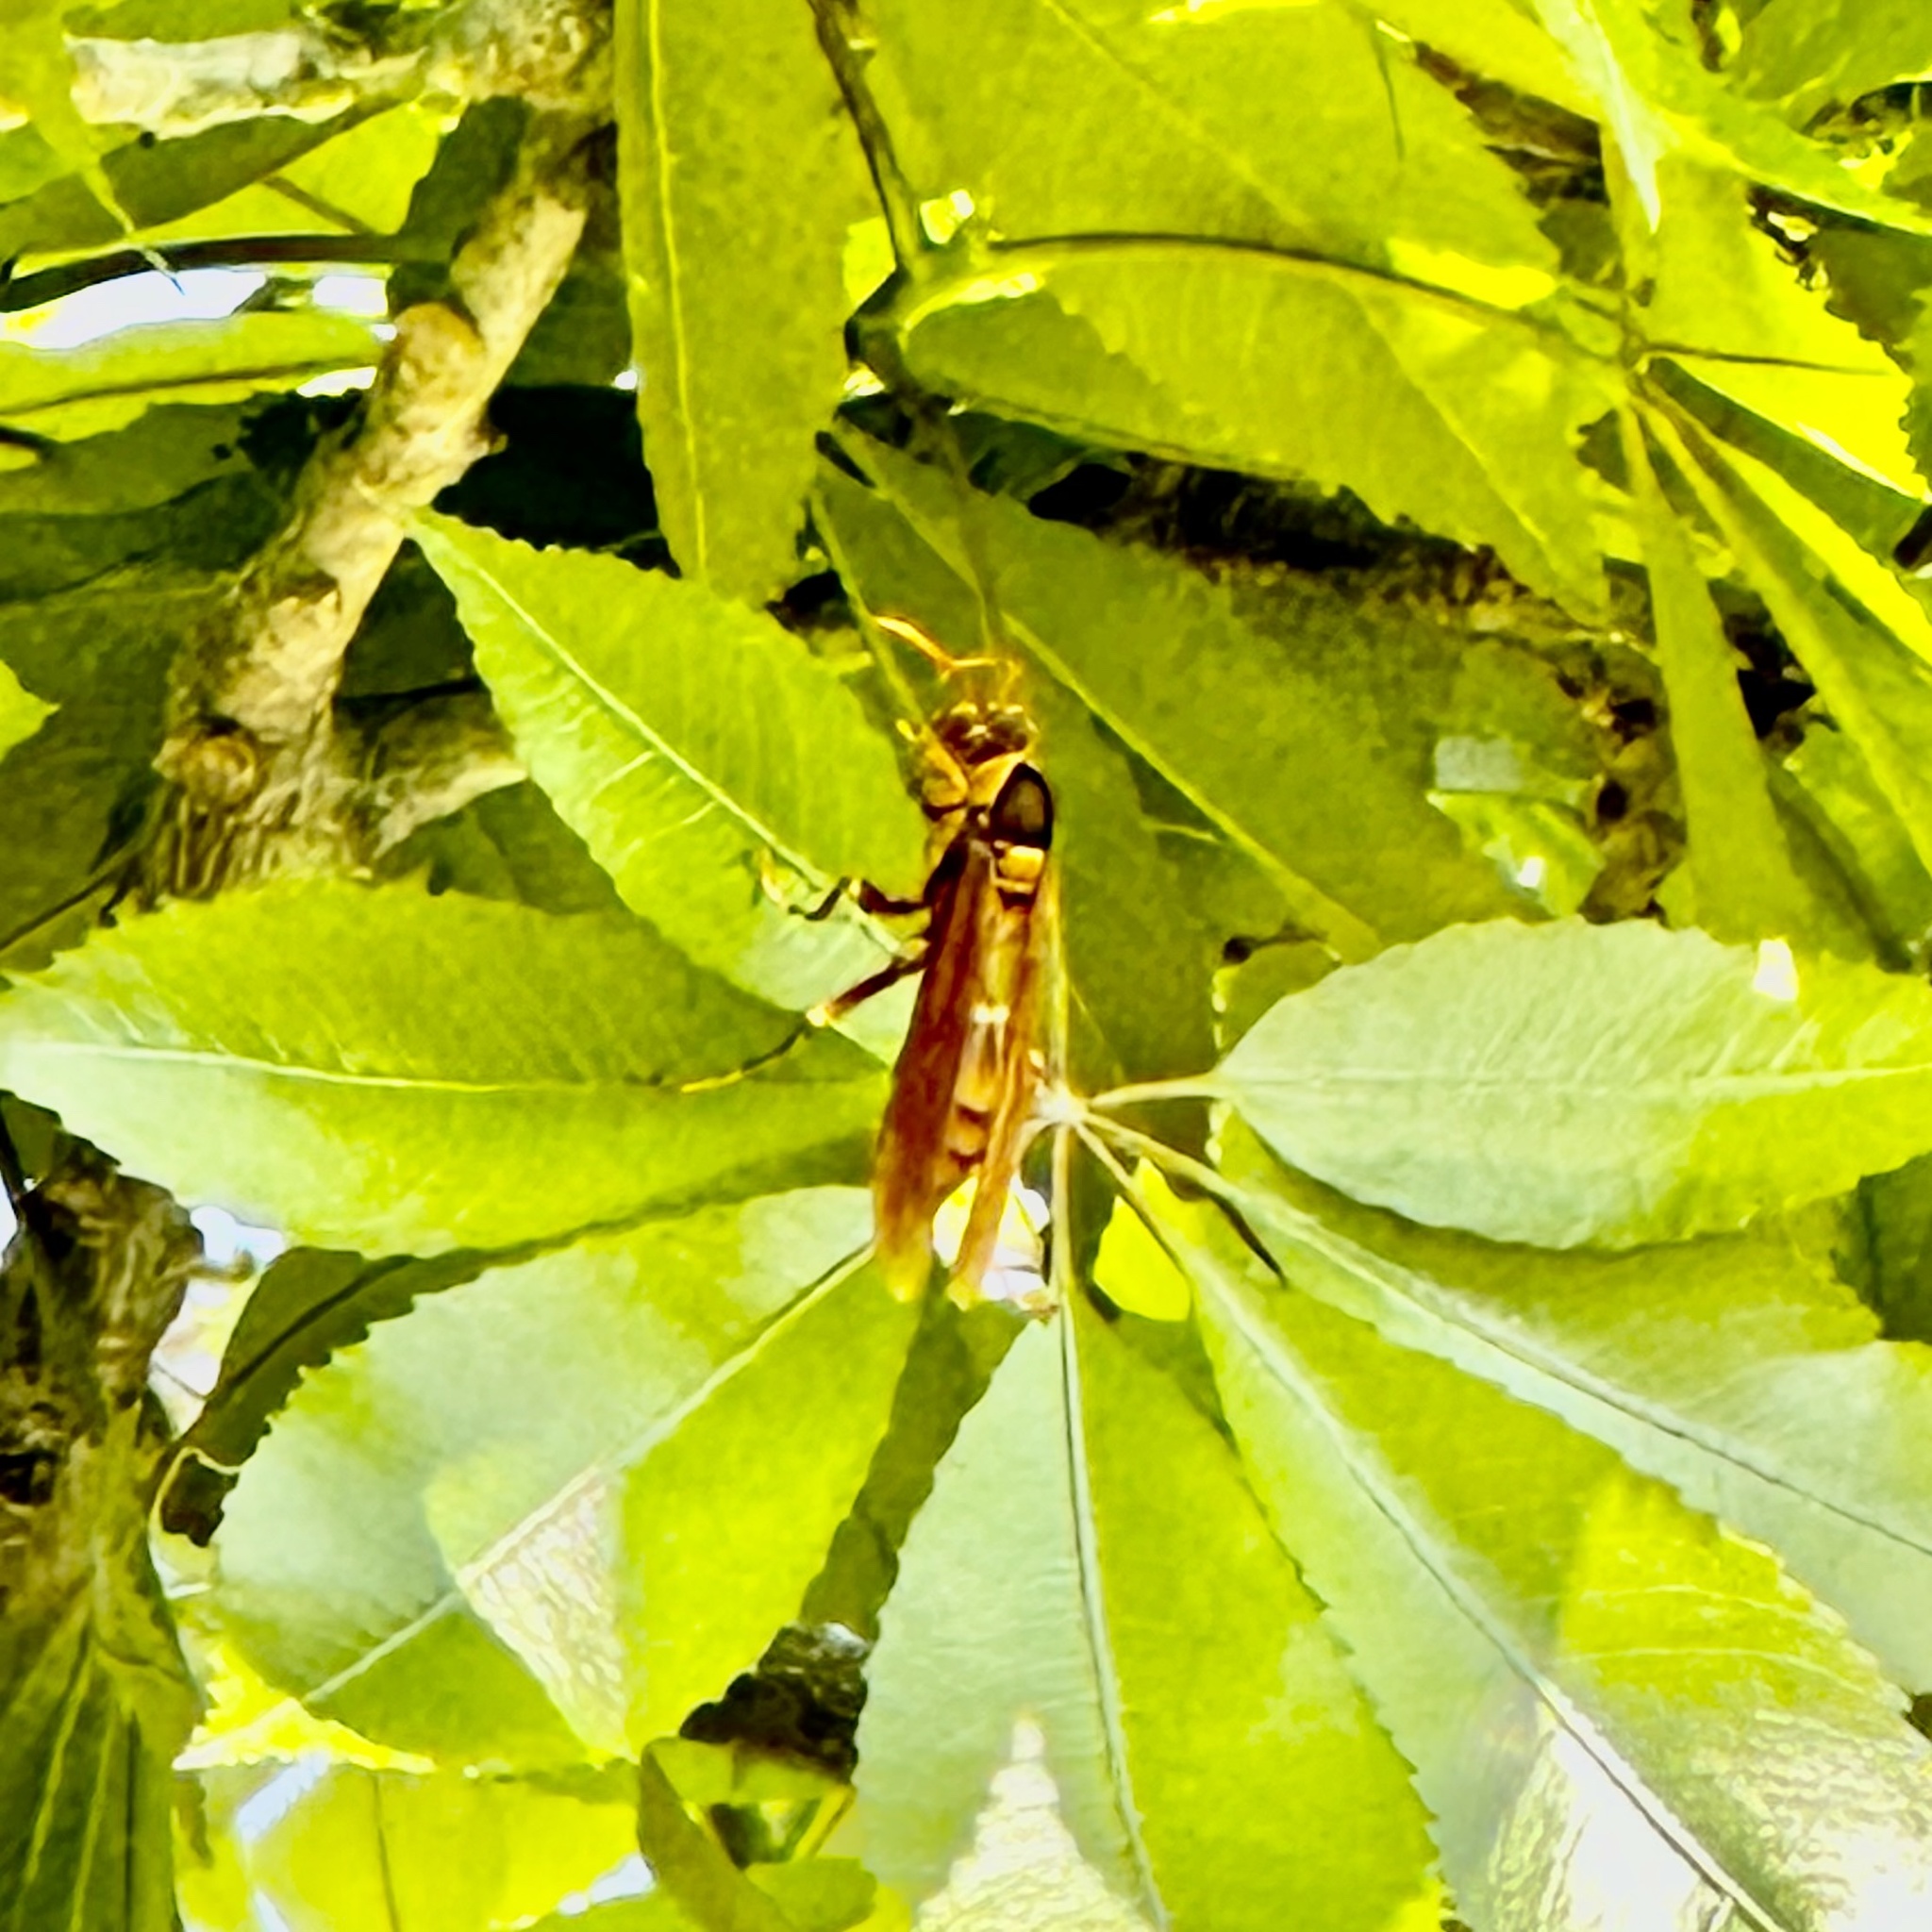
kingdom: Animalia
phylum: Arthropoda
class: Insecta
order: Hymenoptera
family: Eumenidae
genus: Polistes
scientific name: Polistes carnifex
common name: Paper wasp
